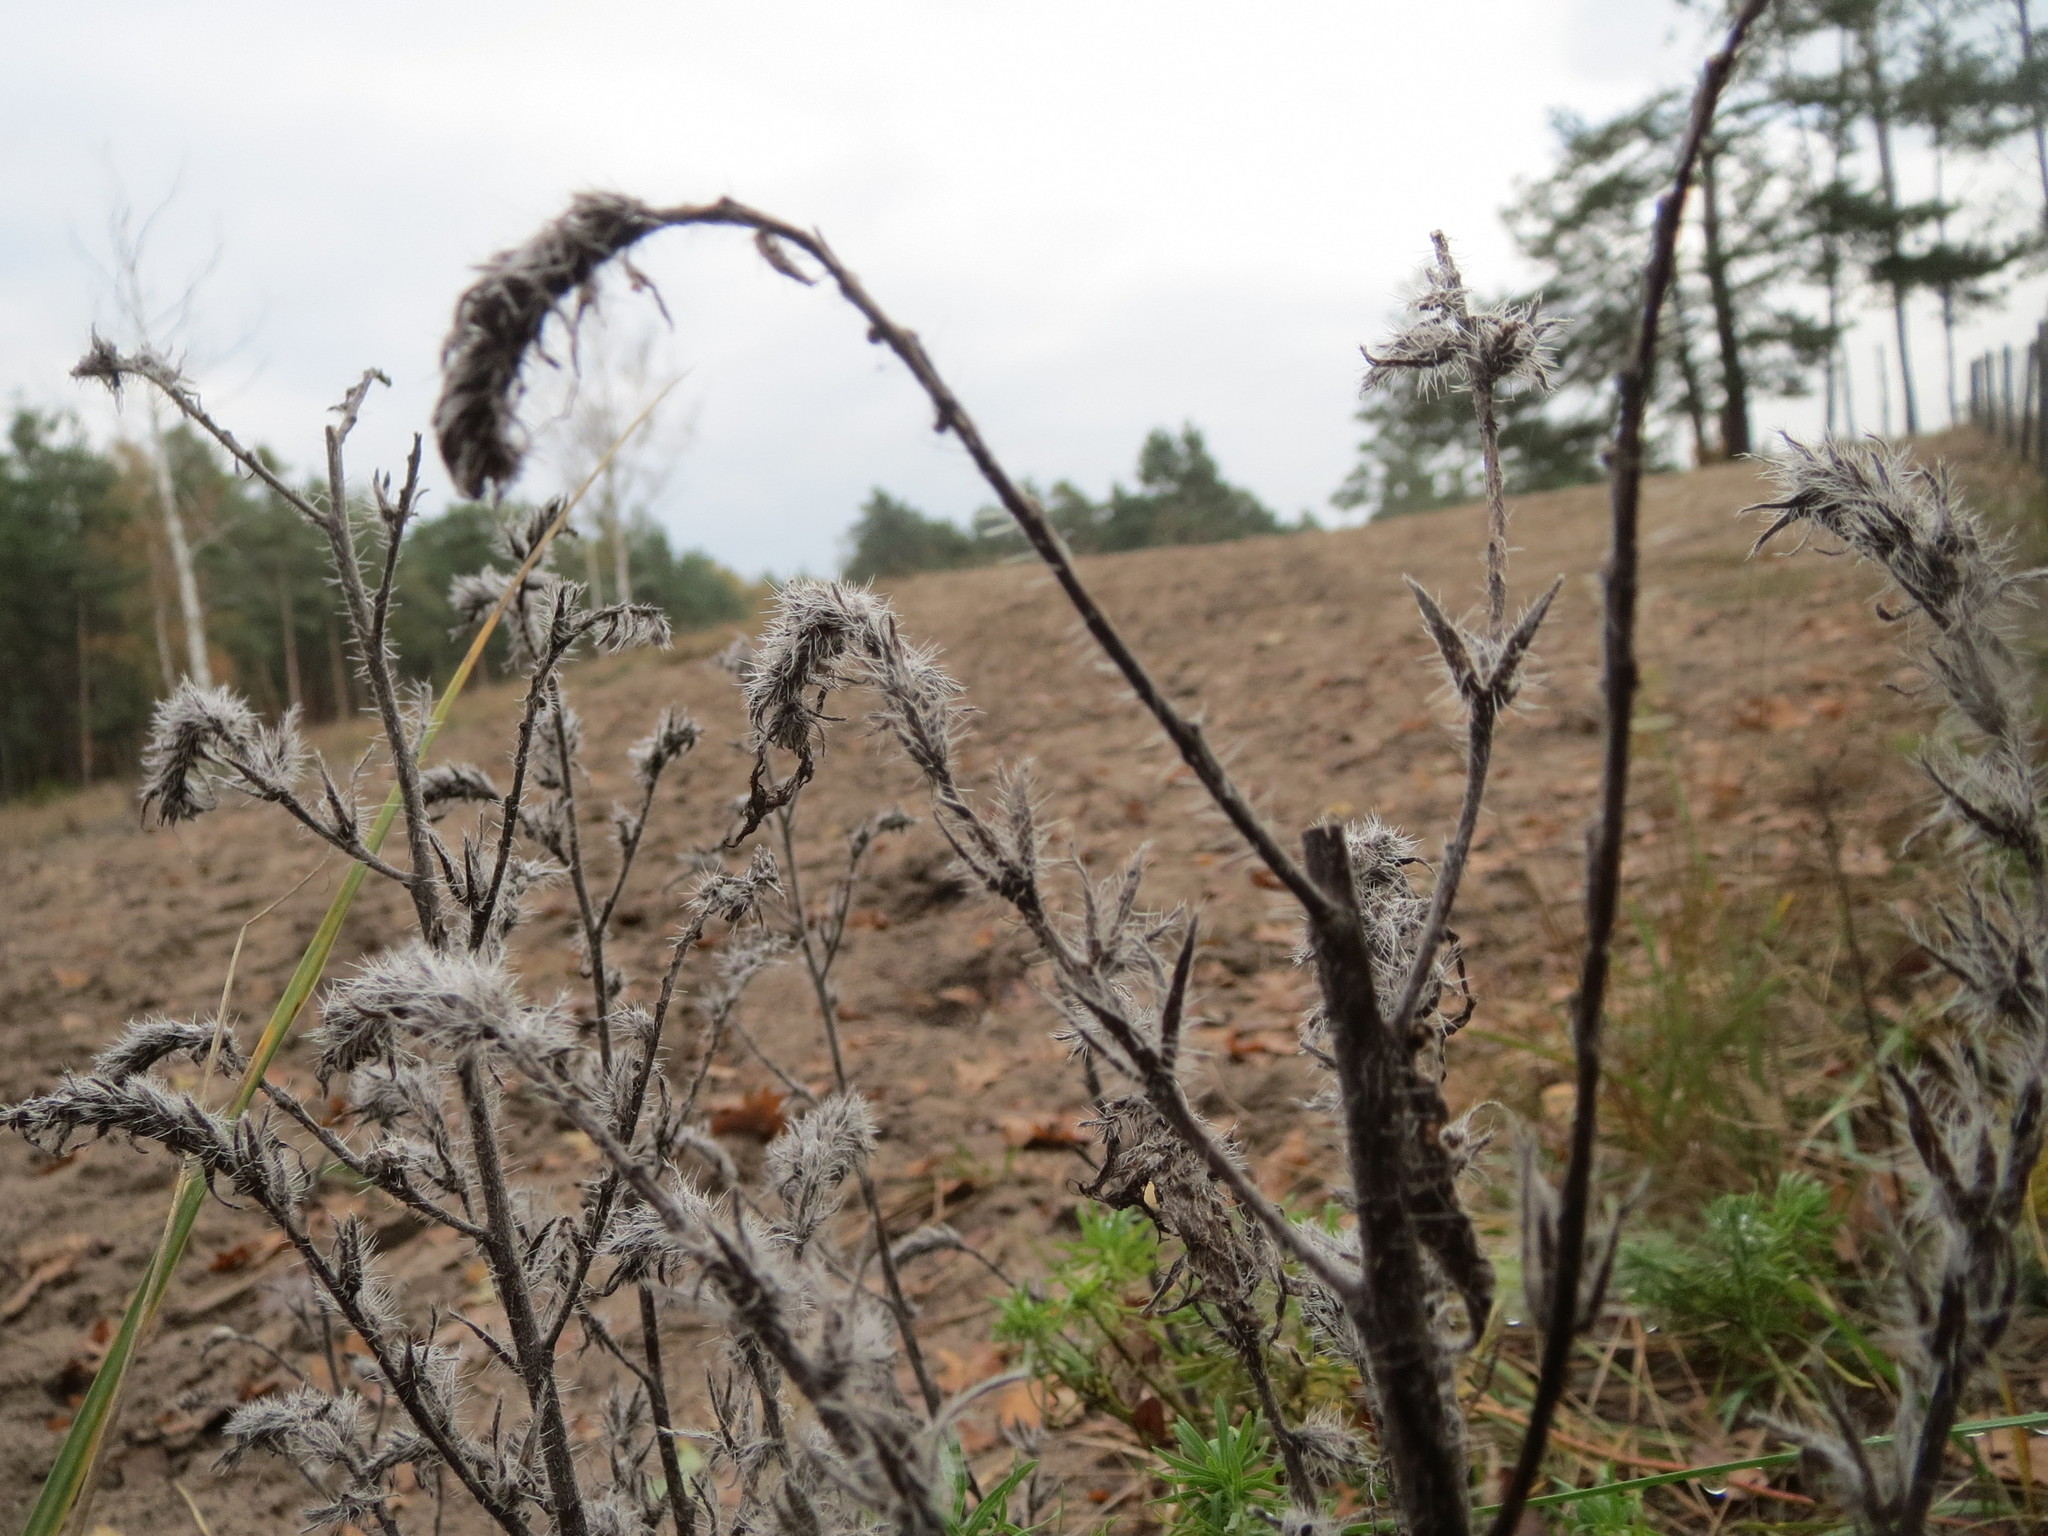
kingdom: Plantae
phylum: Tracheophyta
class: Magnoliopsida
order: Boraginales
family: Boraginaceae
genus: Echium
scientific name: Echium vulgare
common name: Common viper's bugloss
